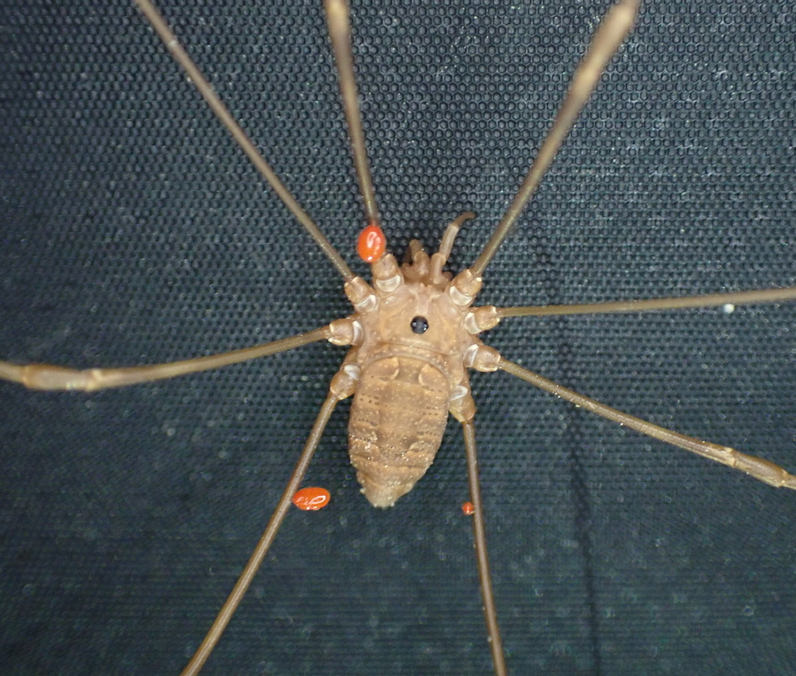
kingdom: Animalia
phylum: Arthropoda
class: Arachnida
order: Opiliones
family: Sclerosomatidae
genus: Leiobunum
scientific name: Leiobunum ventricosum
